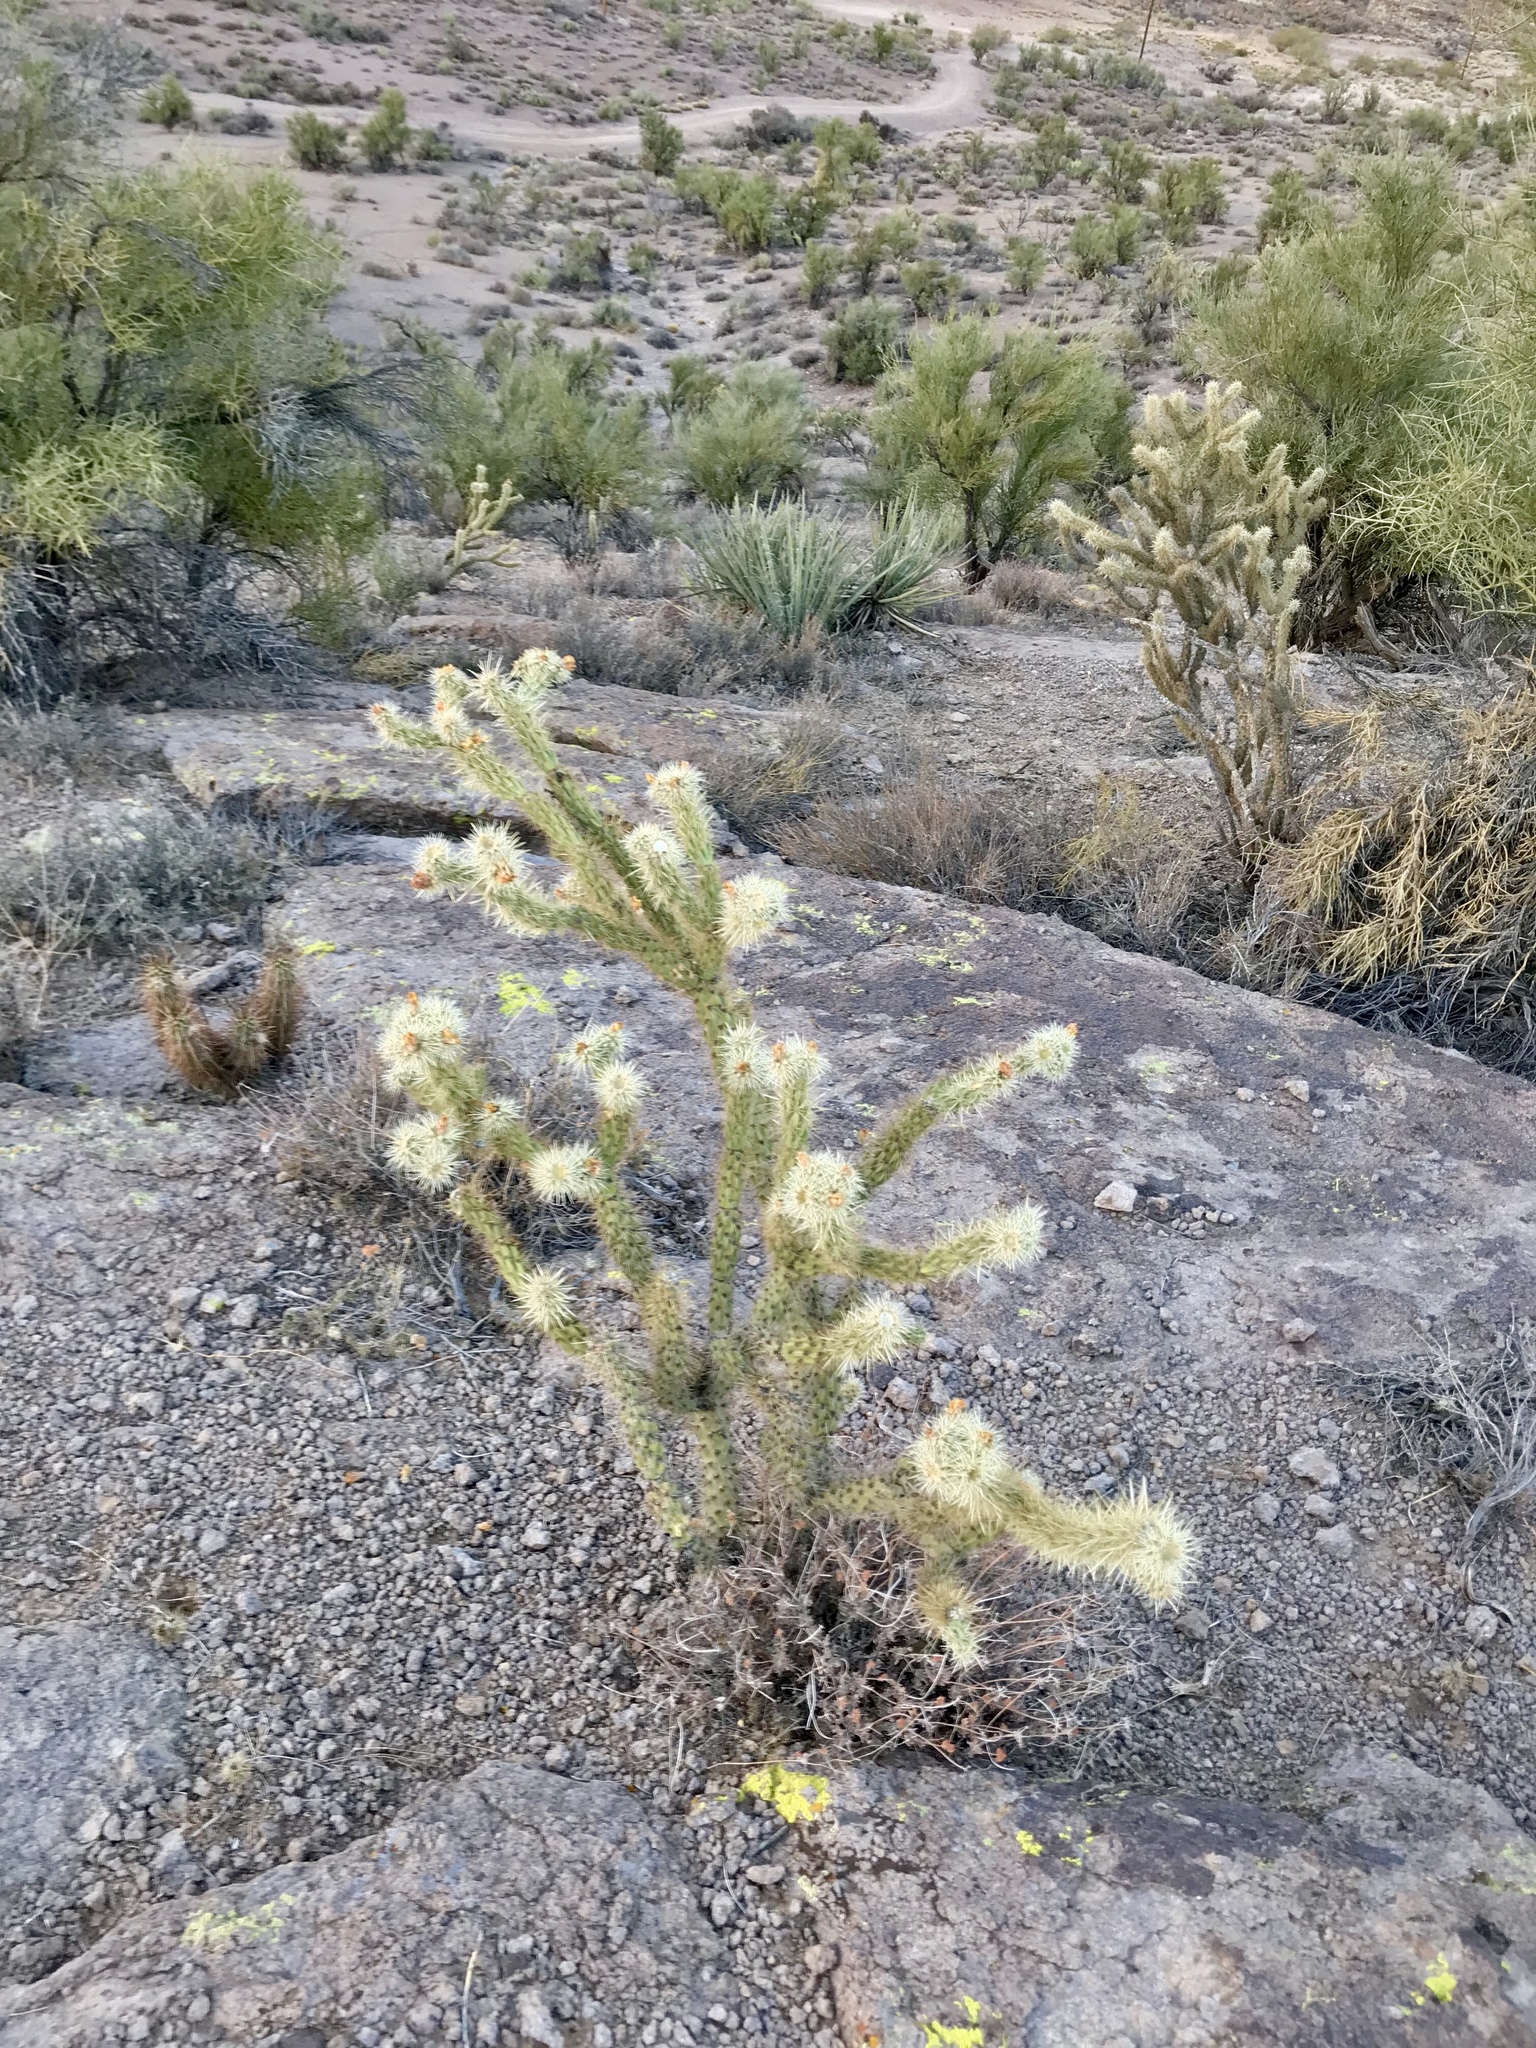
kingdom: Plantae
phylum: Tracheophyta
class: Magnoliopsida
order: Caryophyllales
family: Cactaceae
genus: Cylindropuntia
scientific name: Cylindropuntia acanthocarpa
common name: Buckhorn cholla
